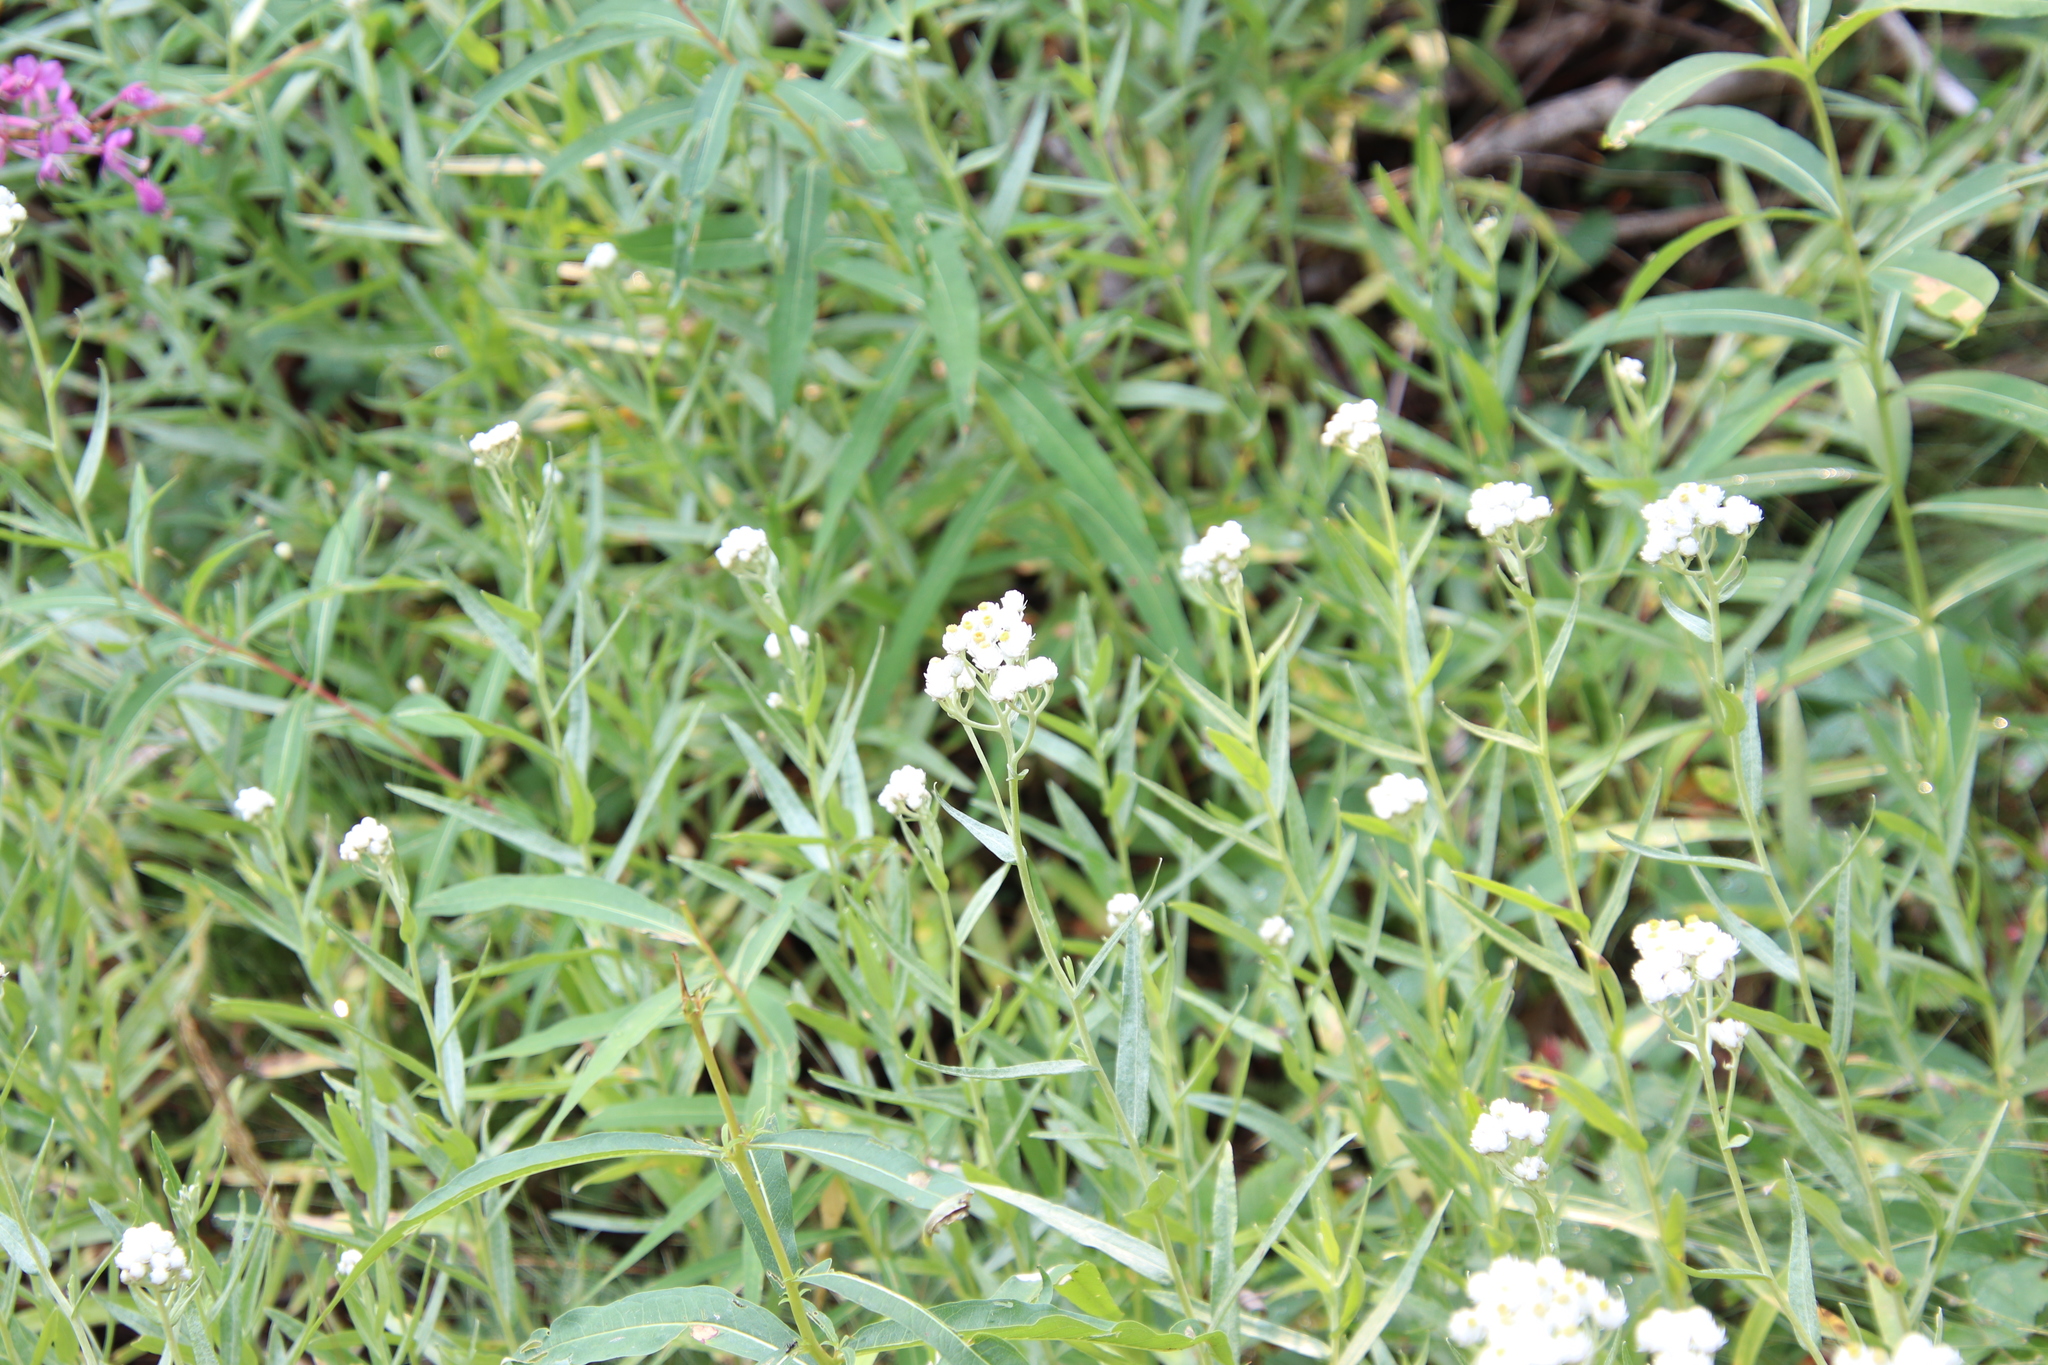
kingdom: Plantae
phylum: Tracheophyta
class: Magnoliopsida
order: Asterales
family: Asteraceae
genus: Anaphalis
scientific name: Anaphalis margaritacea
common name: Pearly everlasting
